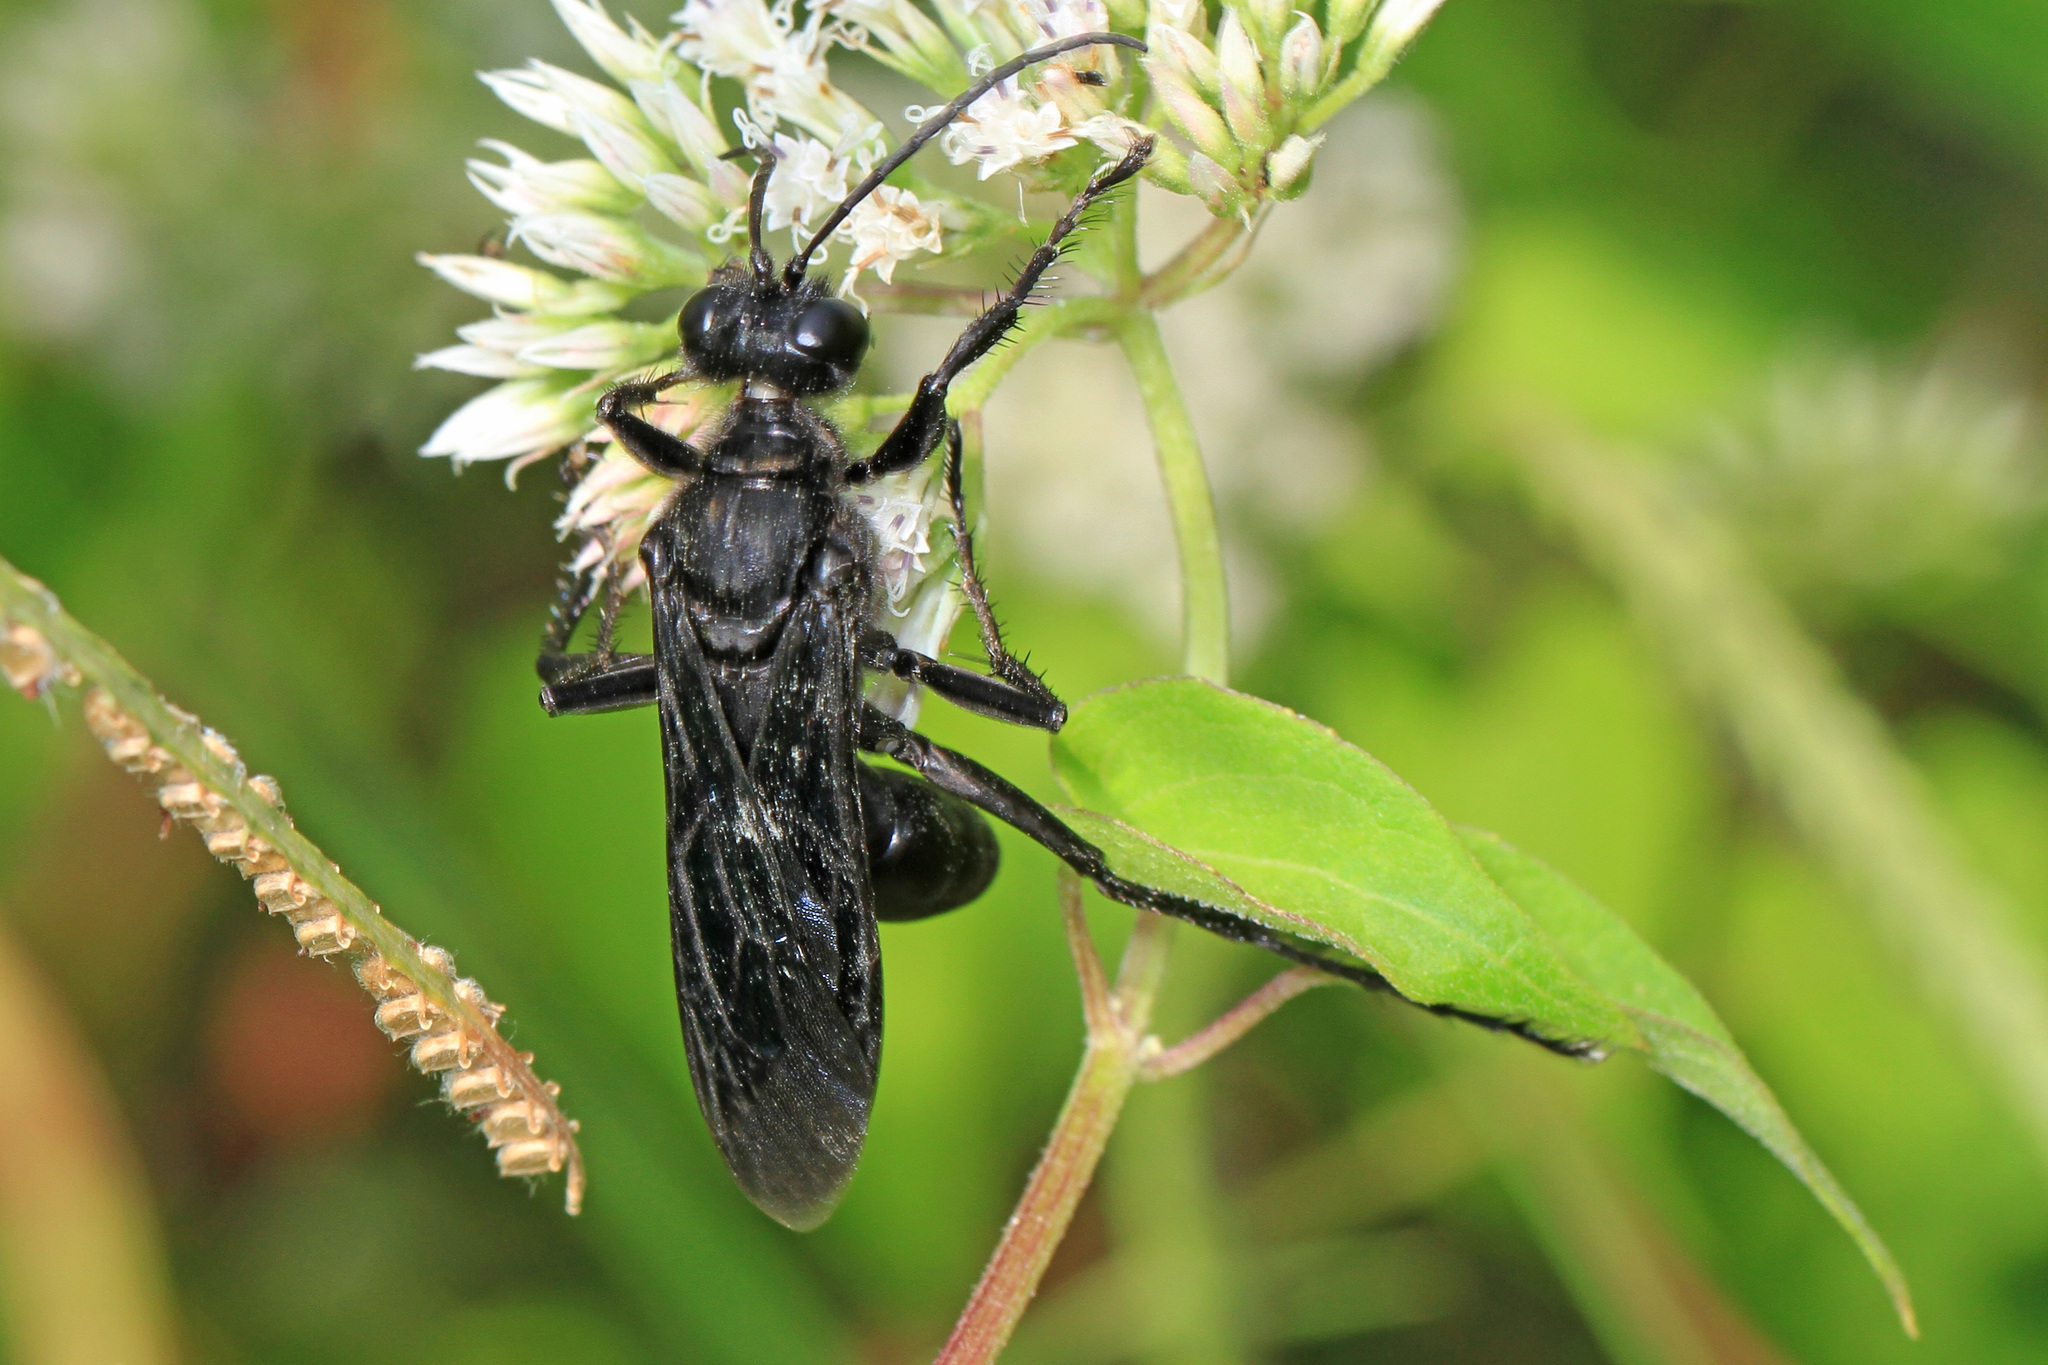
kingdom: Animalia
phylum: Arthropoda
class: Insecta
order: Hymenoptera
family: Sphecidae
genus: Sphex
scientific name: Sphex pensylvanicus
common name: Great black digger wasp
